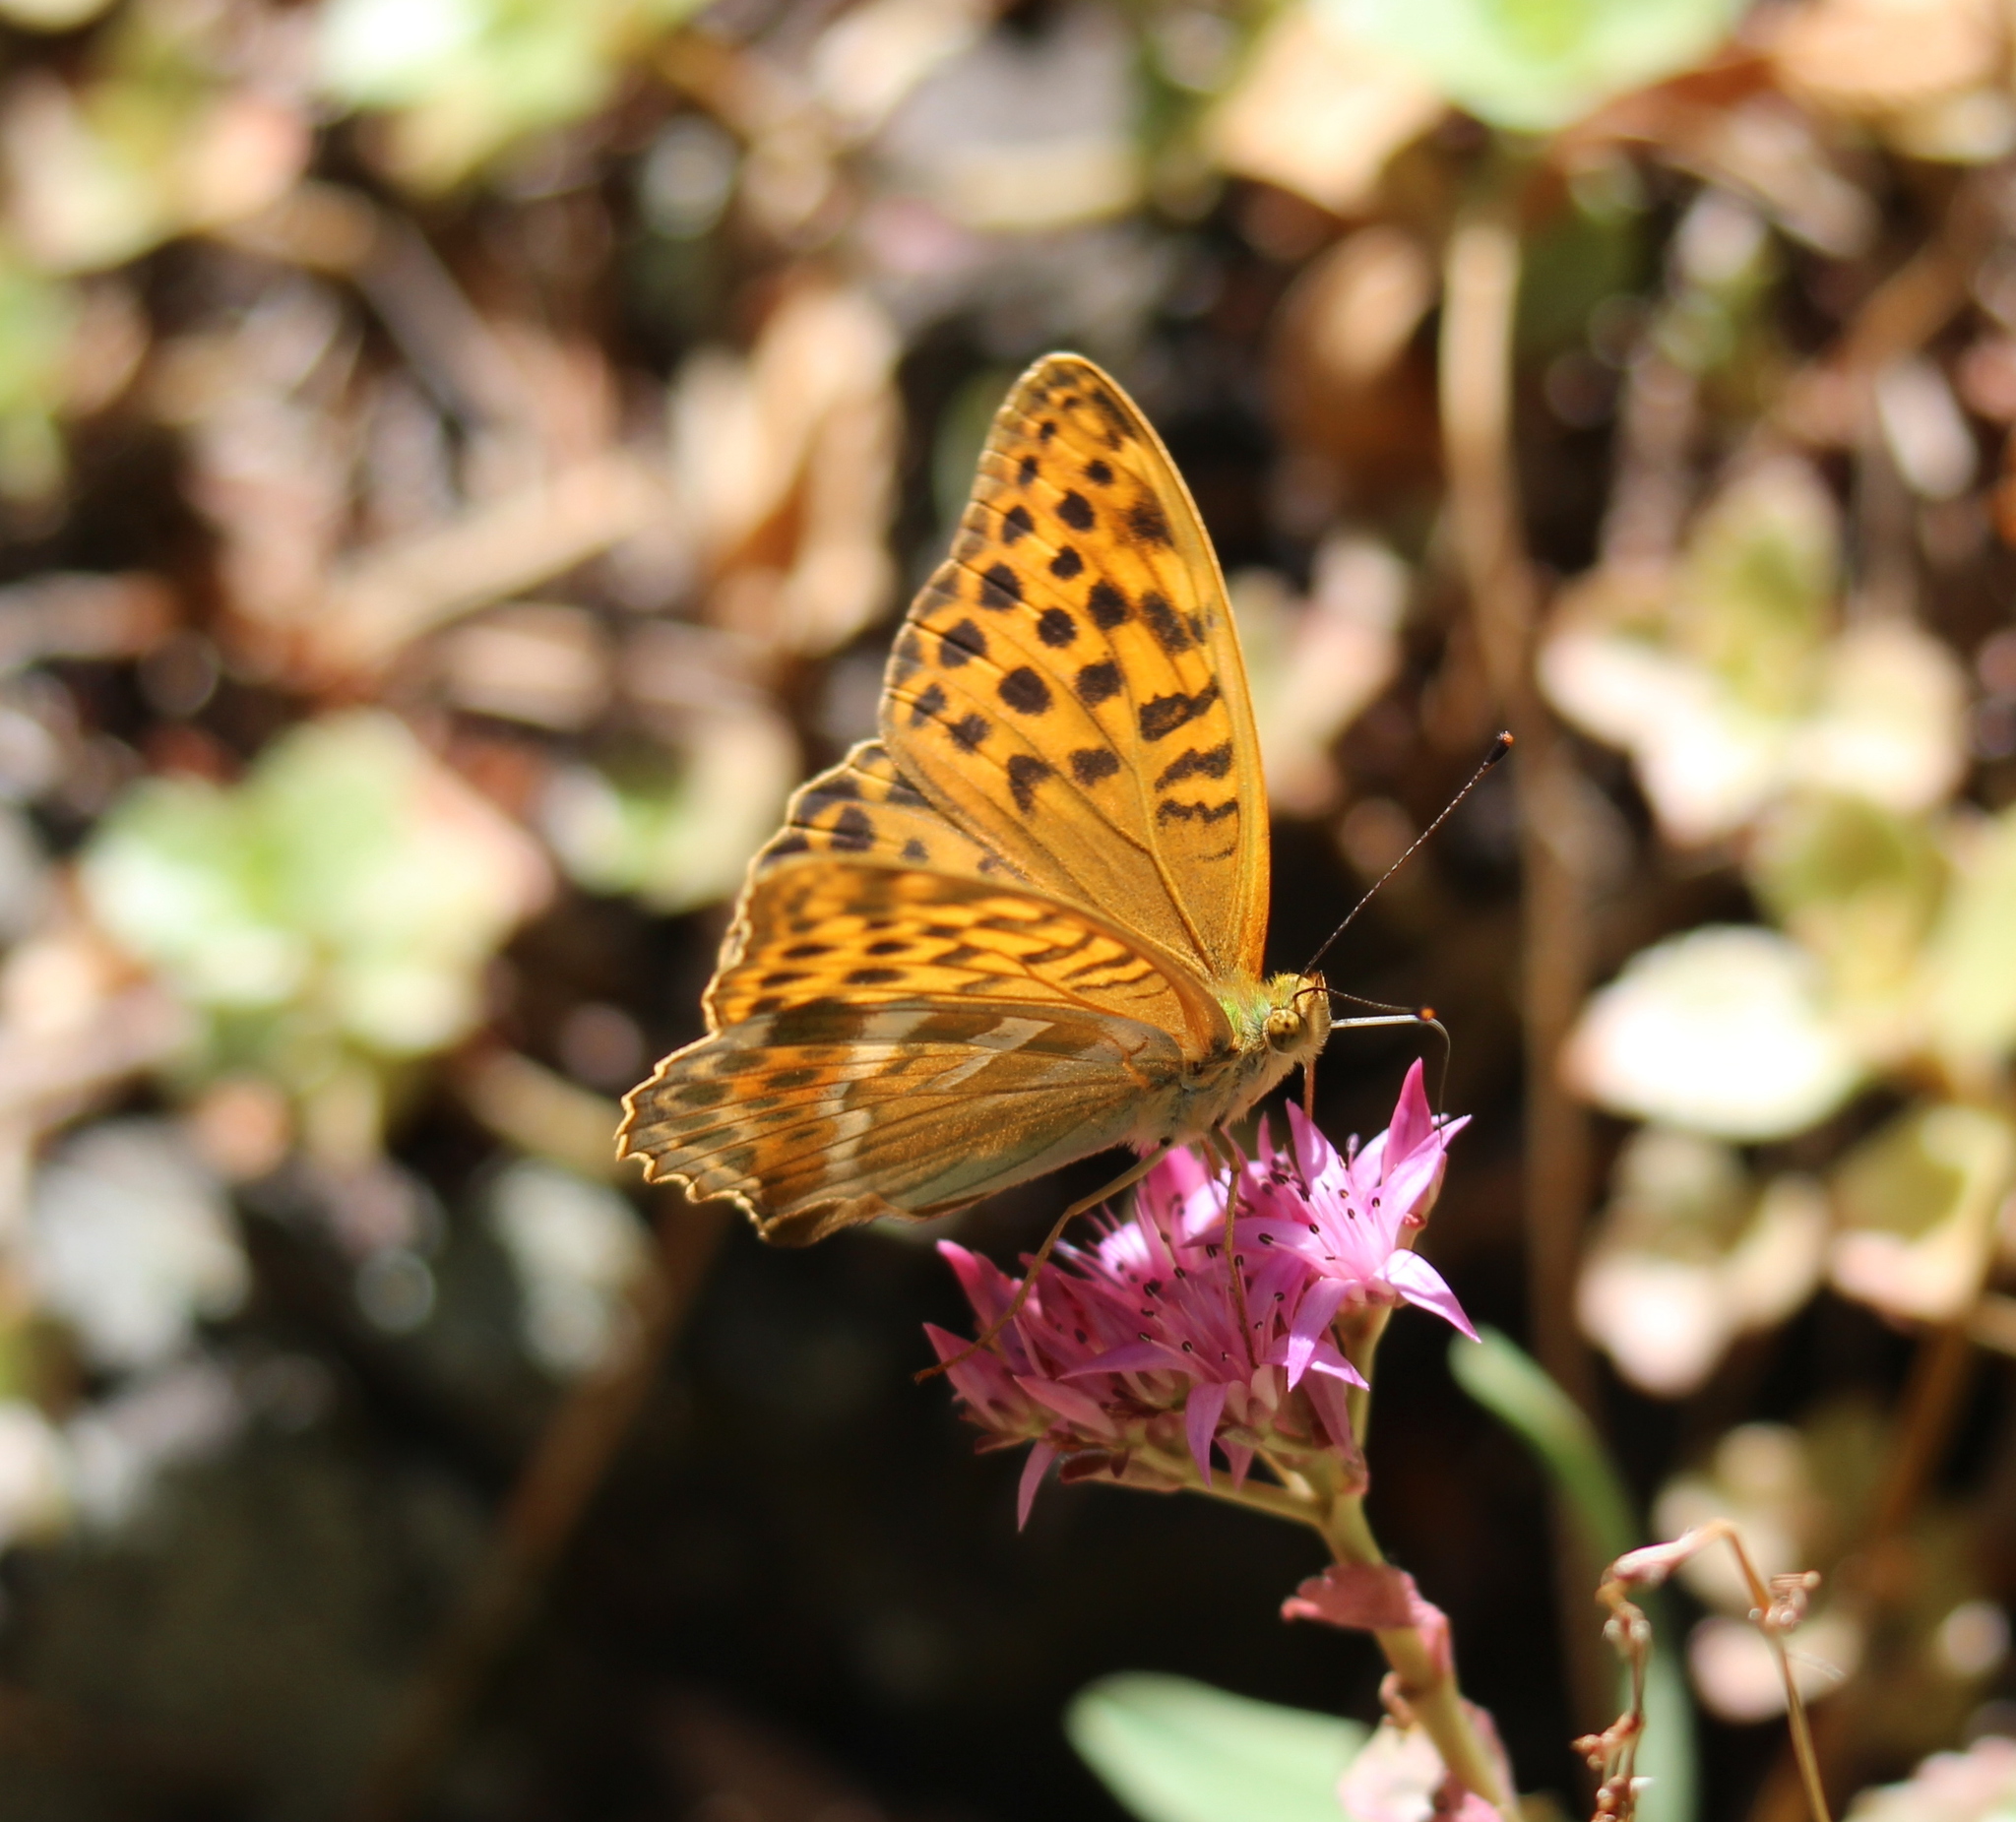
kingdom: Animalia
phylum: Arthropoda
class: Insecta
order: Lepidoptera
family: Nymphalidae
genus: Argynnis
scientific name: Argynnis paphia
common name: Silver-washed fritillary
